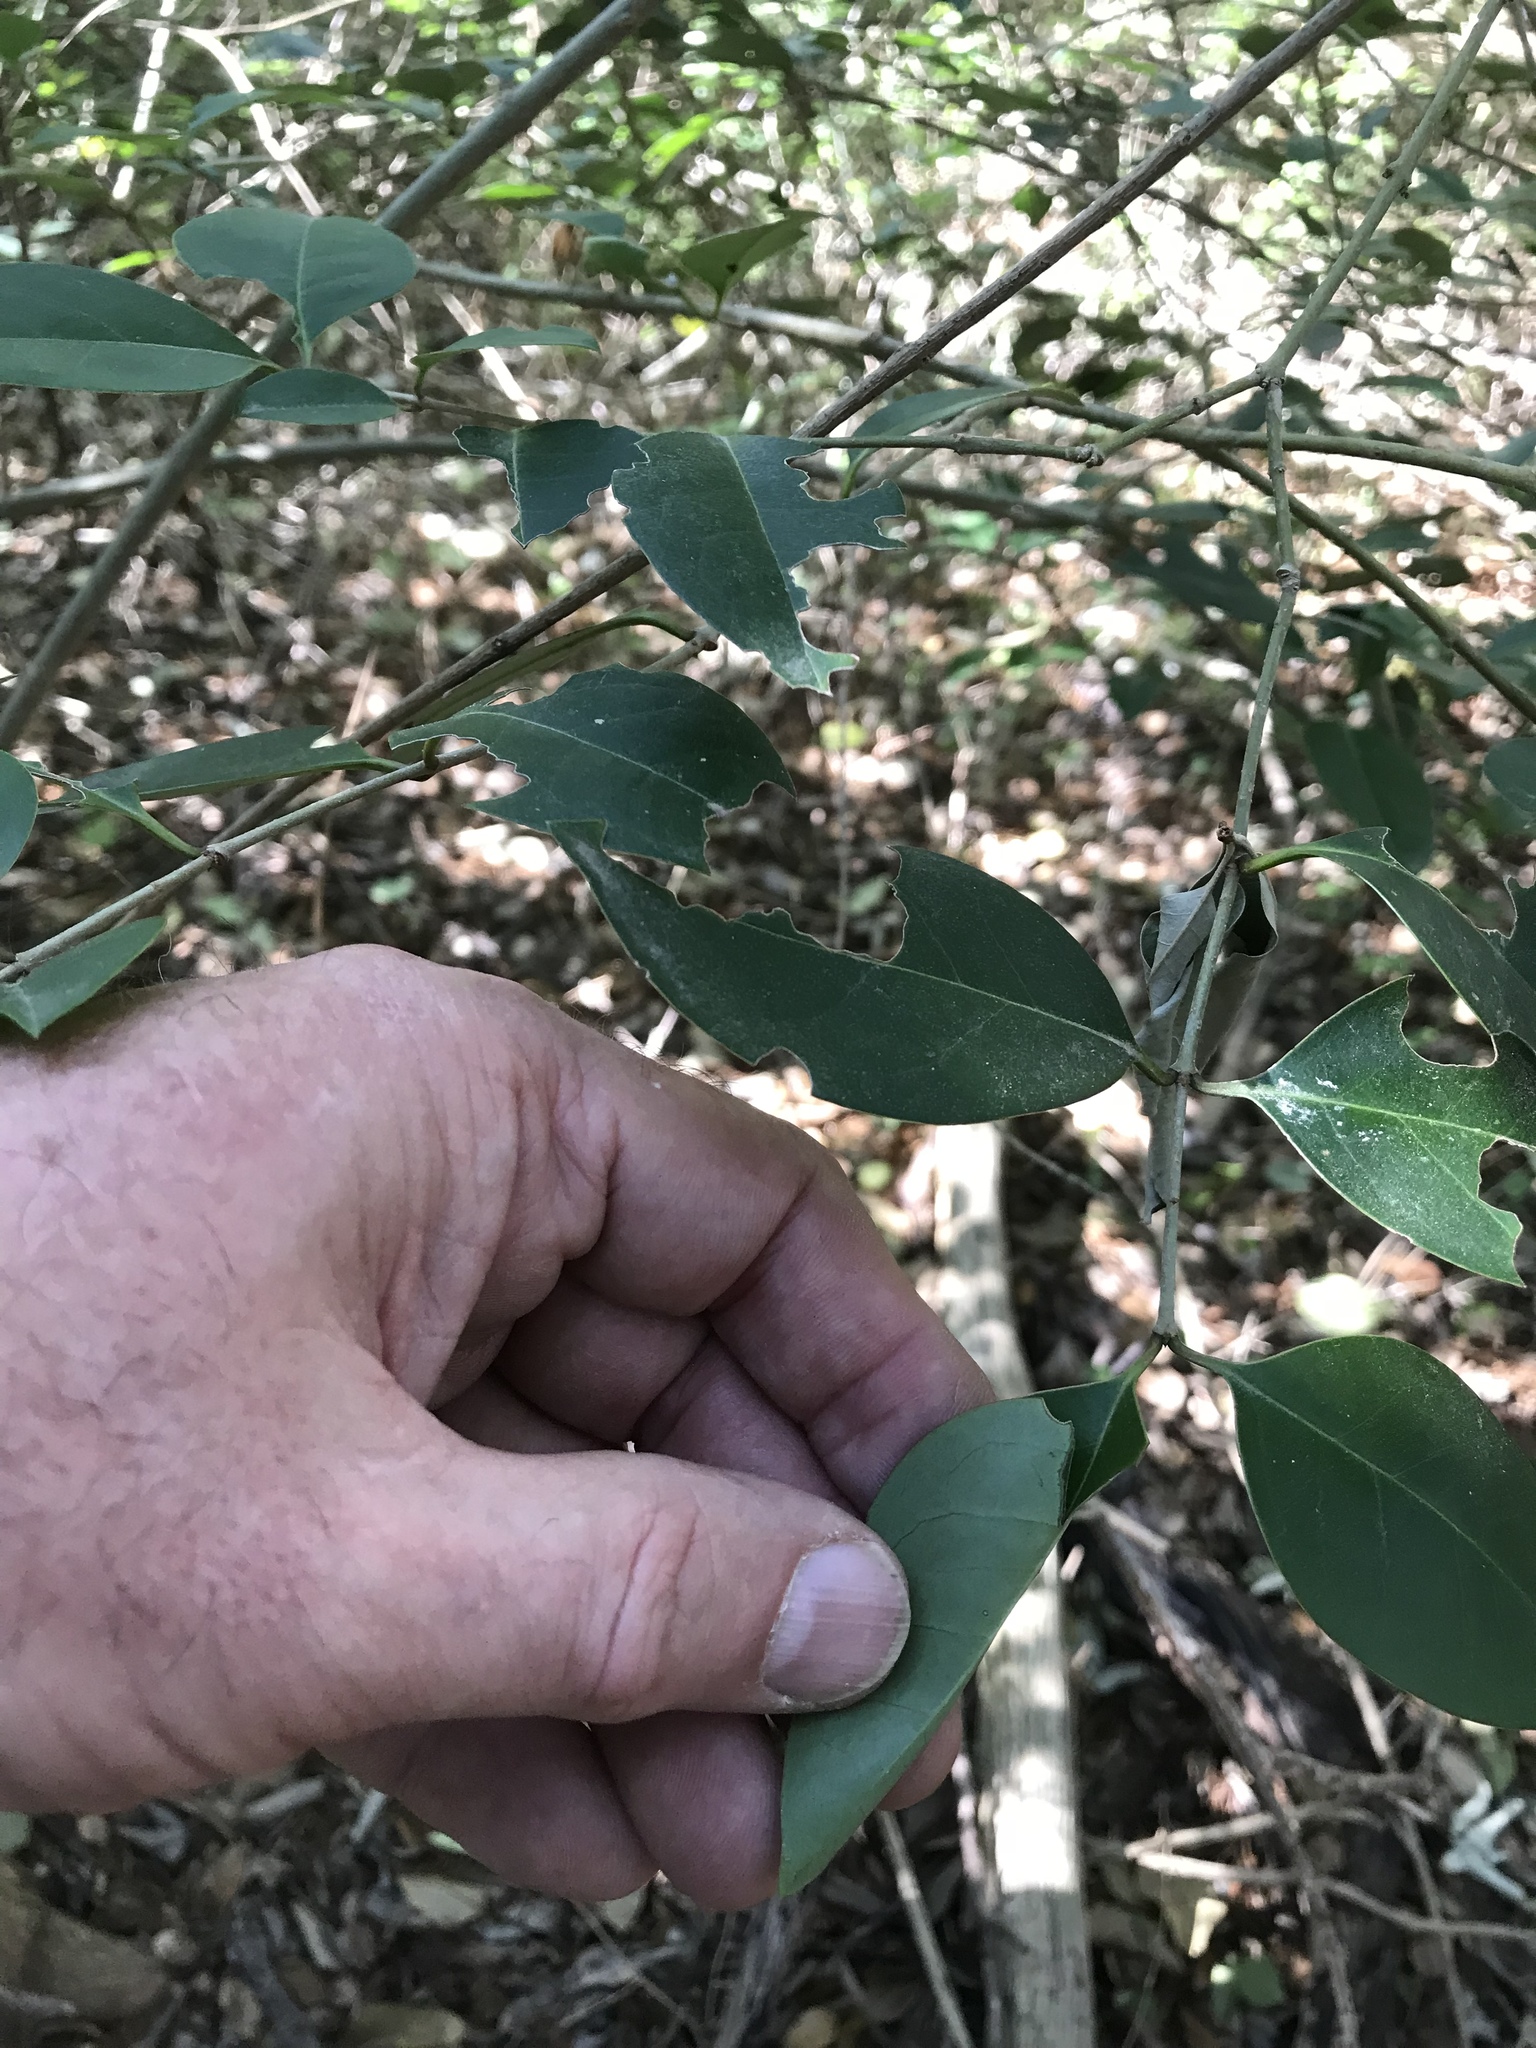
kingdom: Plantae
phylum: Tracheophyta
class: Magnoliopsida
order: Lamiales
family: Oleaceae
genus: Ligustrum
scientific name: Ligustrum lucidum
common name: Glossy privet
